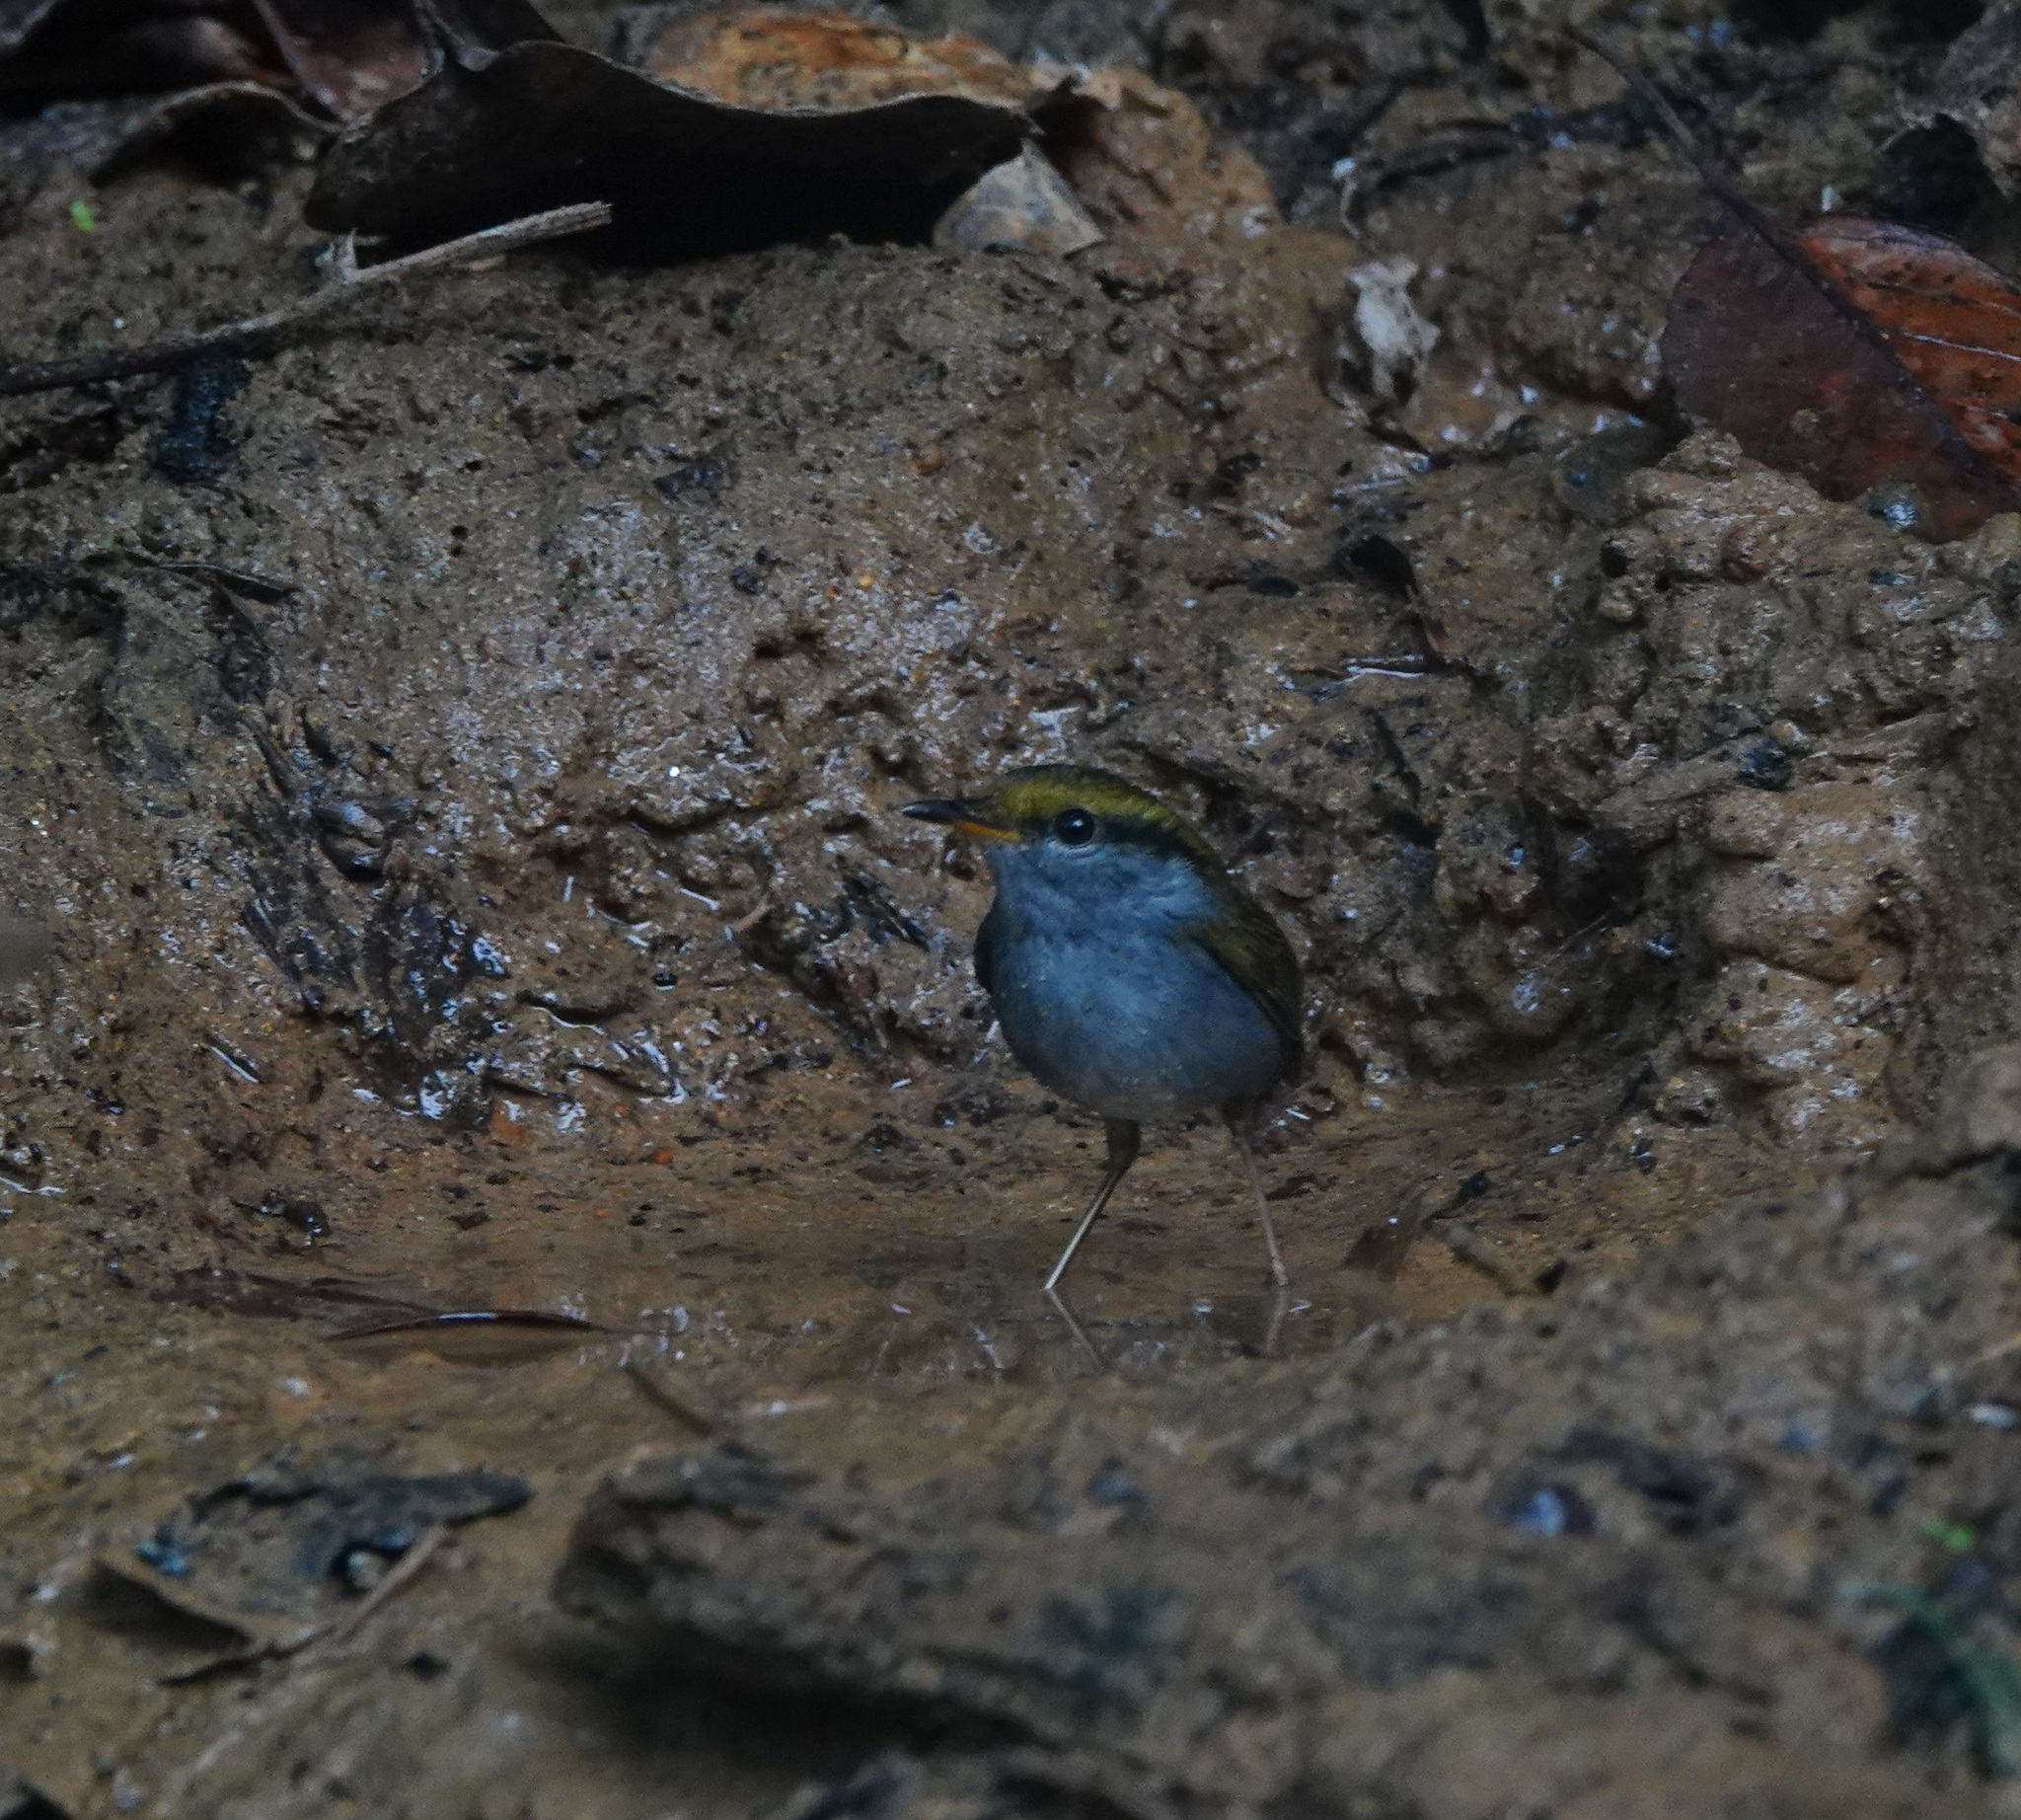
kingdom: Animalia
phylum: Chordata
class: Aves
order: Passeriformes
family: Cettiidae
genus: Tesia
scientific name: Tesia cyaniventer
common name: Grey-bellied tesia
